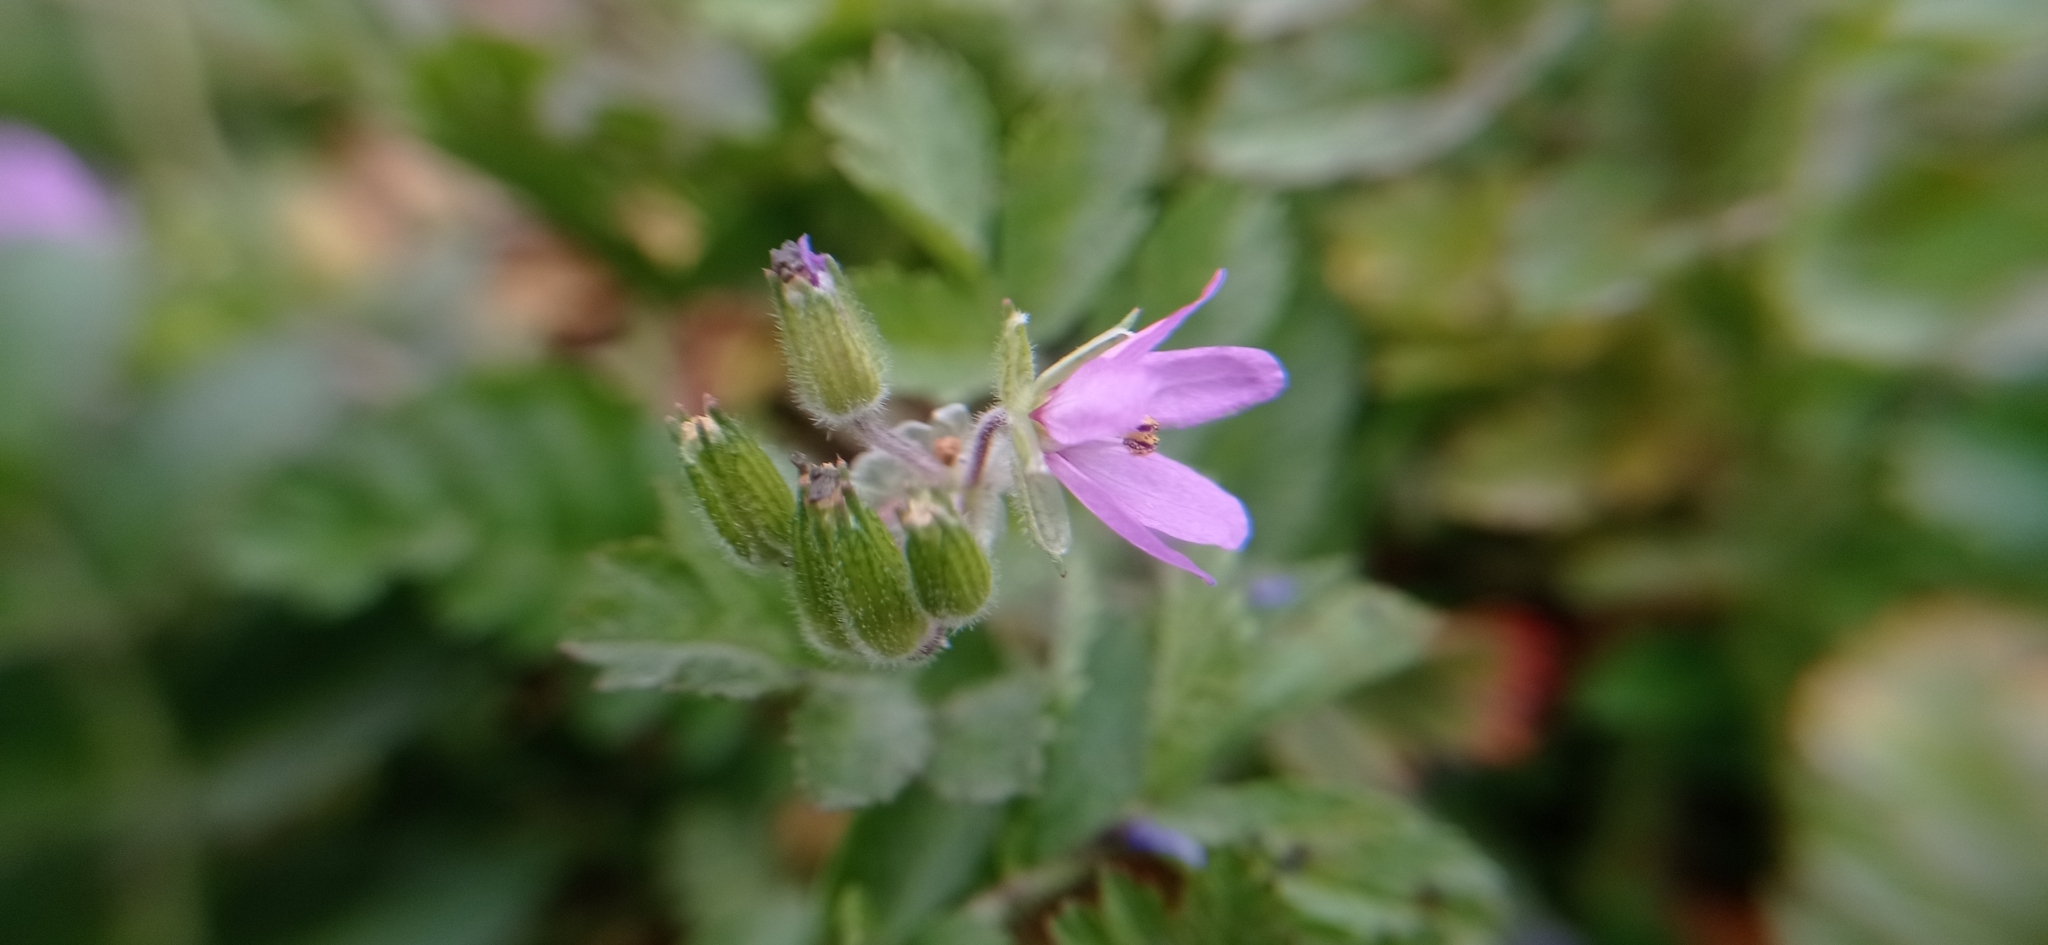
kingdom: Plantae
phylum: Tracheophyta
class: Magnoliopsida
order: Geraniales
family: Geraniaceae
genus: Erodium
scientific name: Erodium moschatum
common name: Musk stork's-bill
